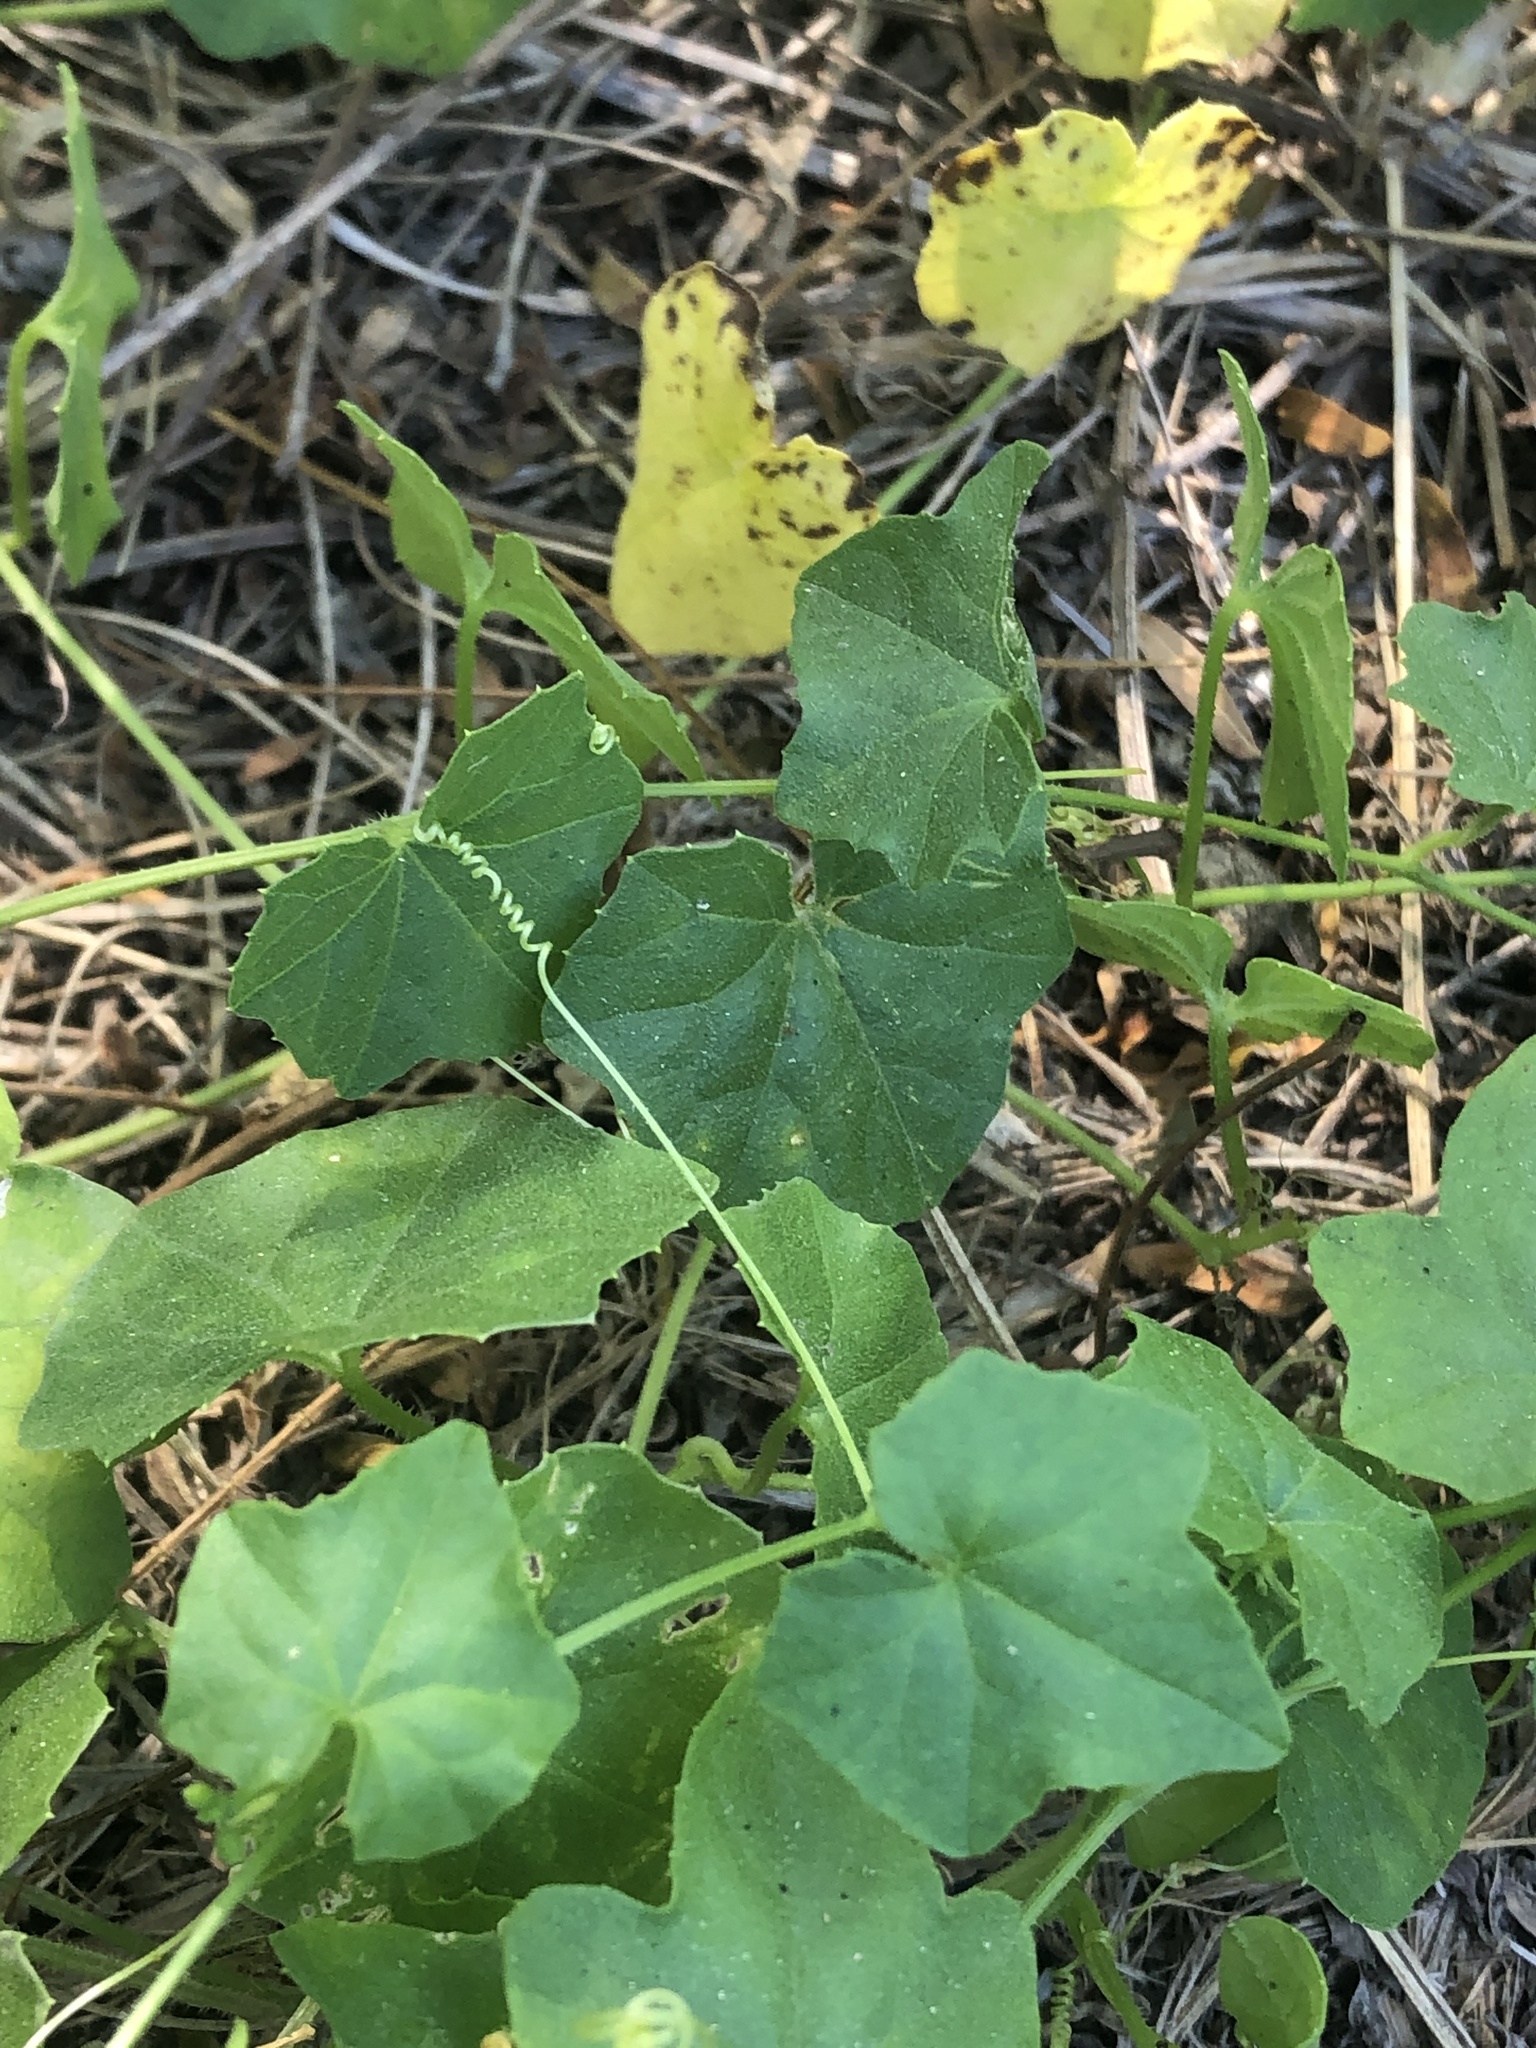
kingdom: Plantae
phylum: Tracheophyta
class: Magnoliopsida
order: Cucurbitales
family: Cucurbitaceae
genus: Melothria
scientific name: Melothria pendula
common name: Creeping-cucumber
